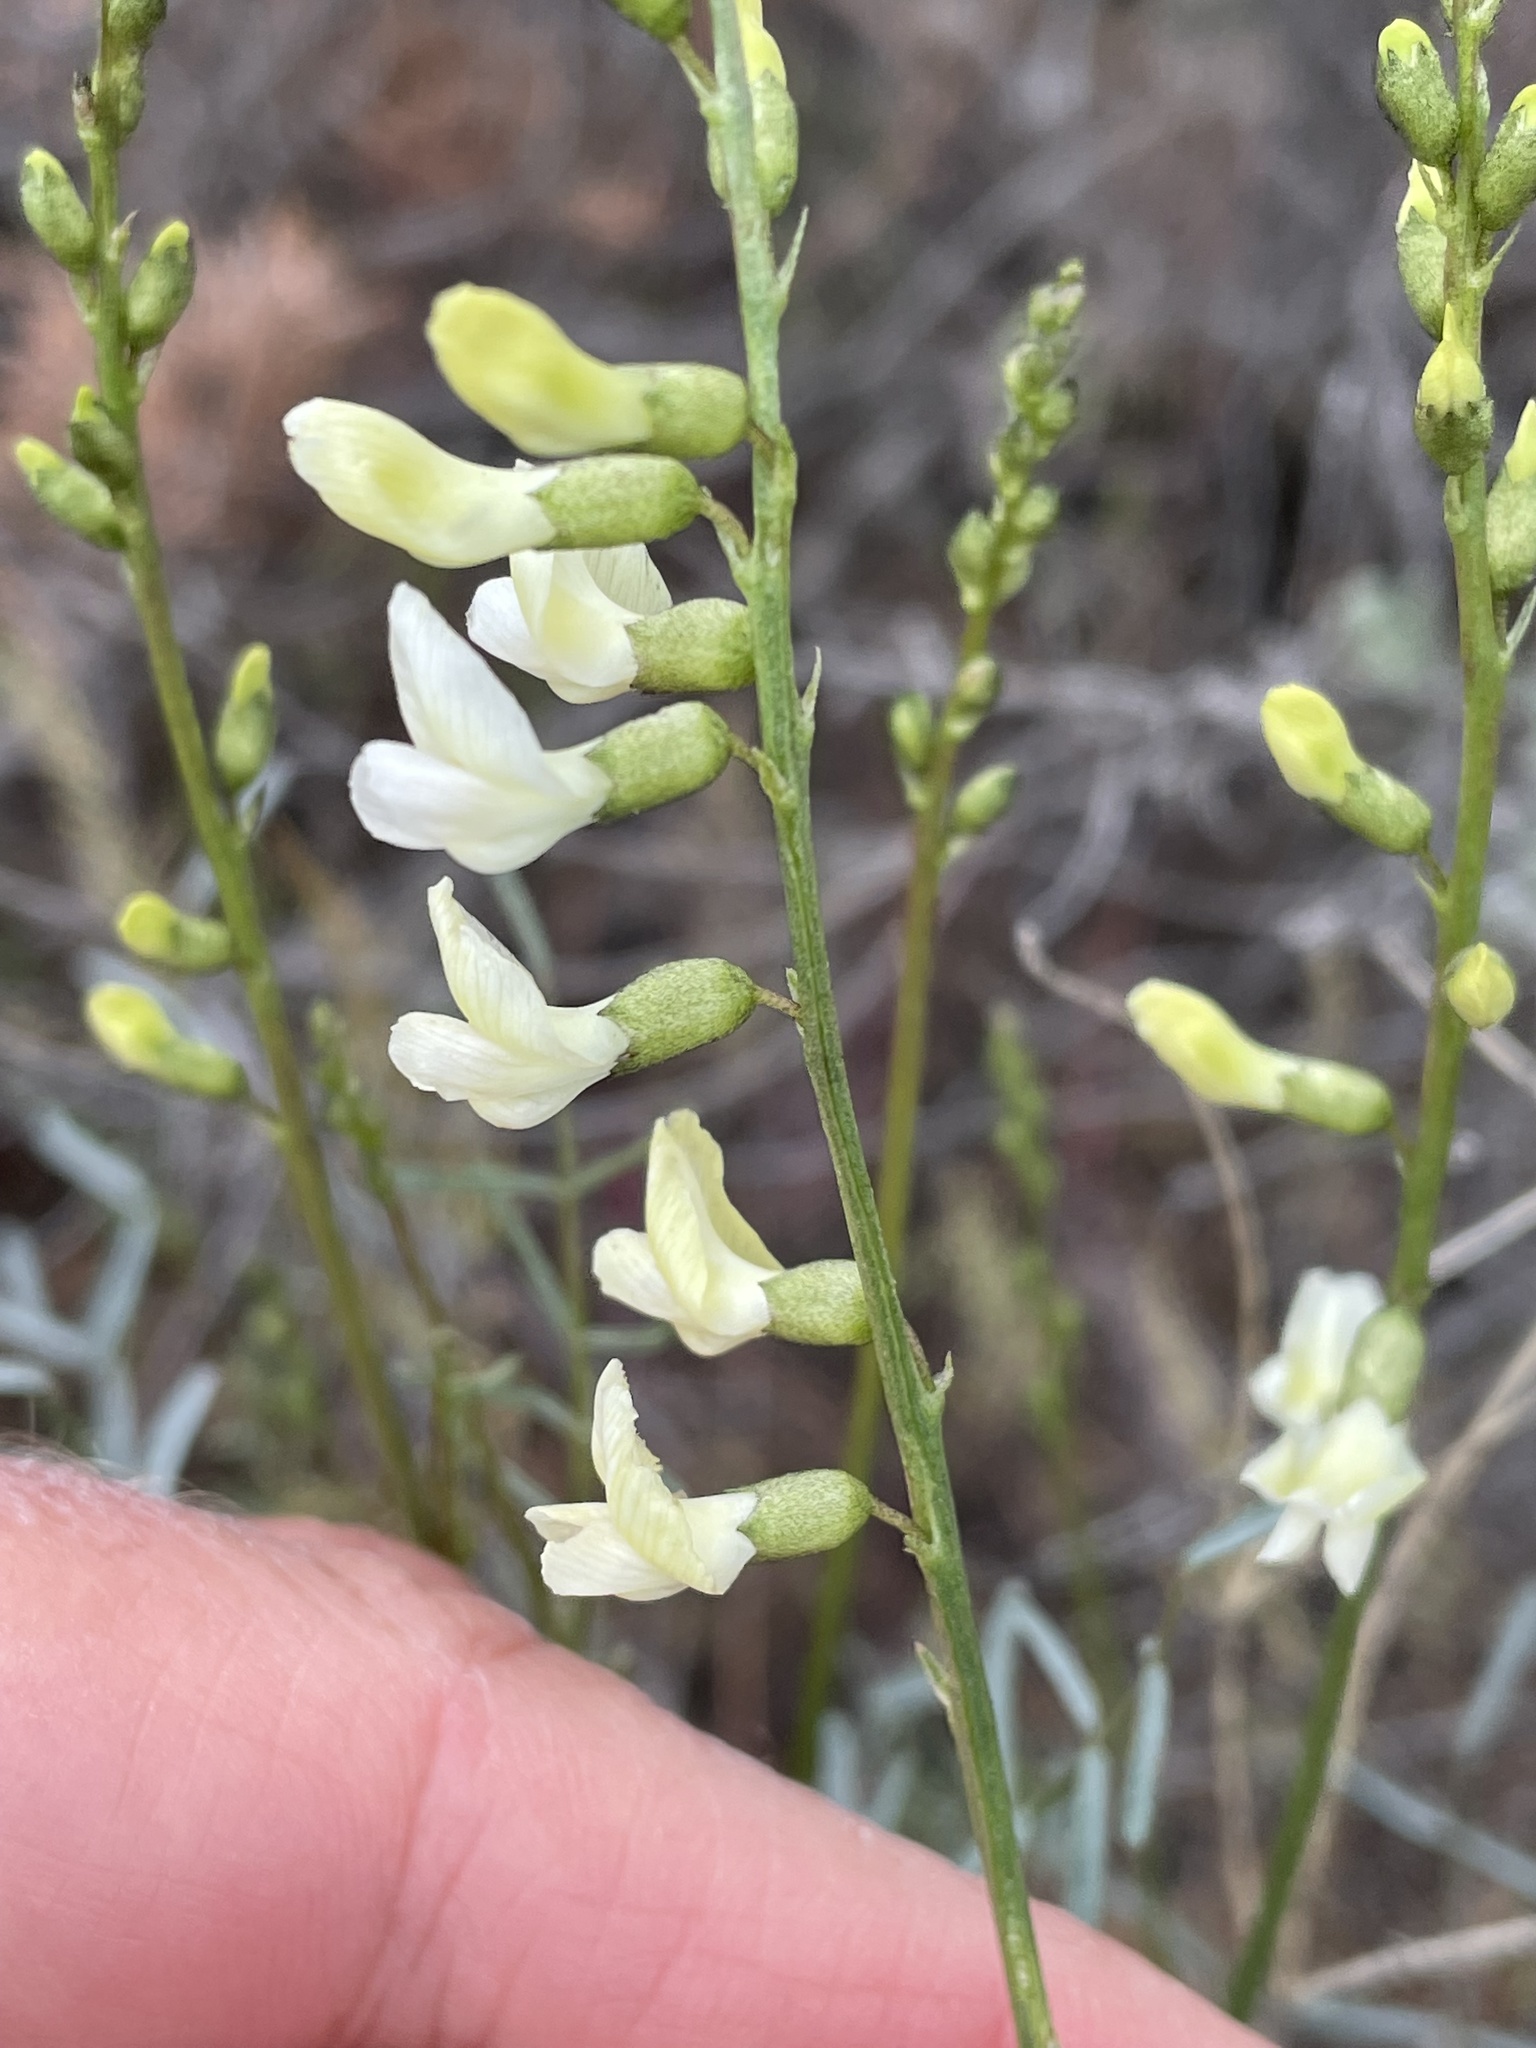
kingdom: Plantae
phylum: Tracheophyta
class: Magnoliopsida
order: Fabales
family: Fabaceae
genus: Astragalus
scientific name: Astragalus filipes
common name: Basalt milk-vetch
